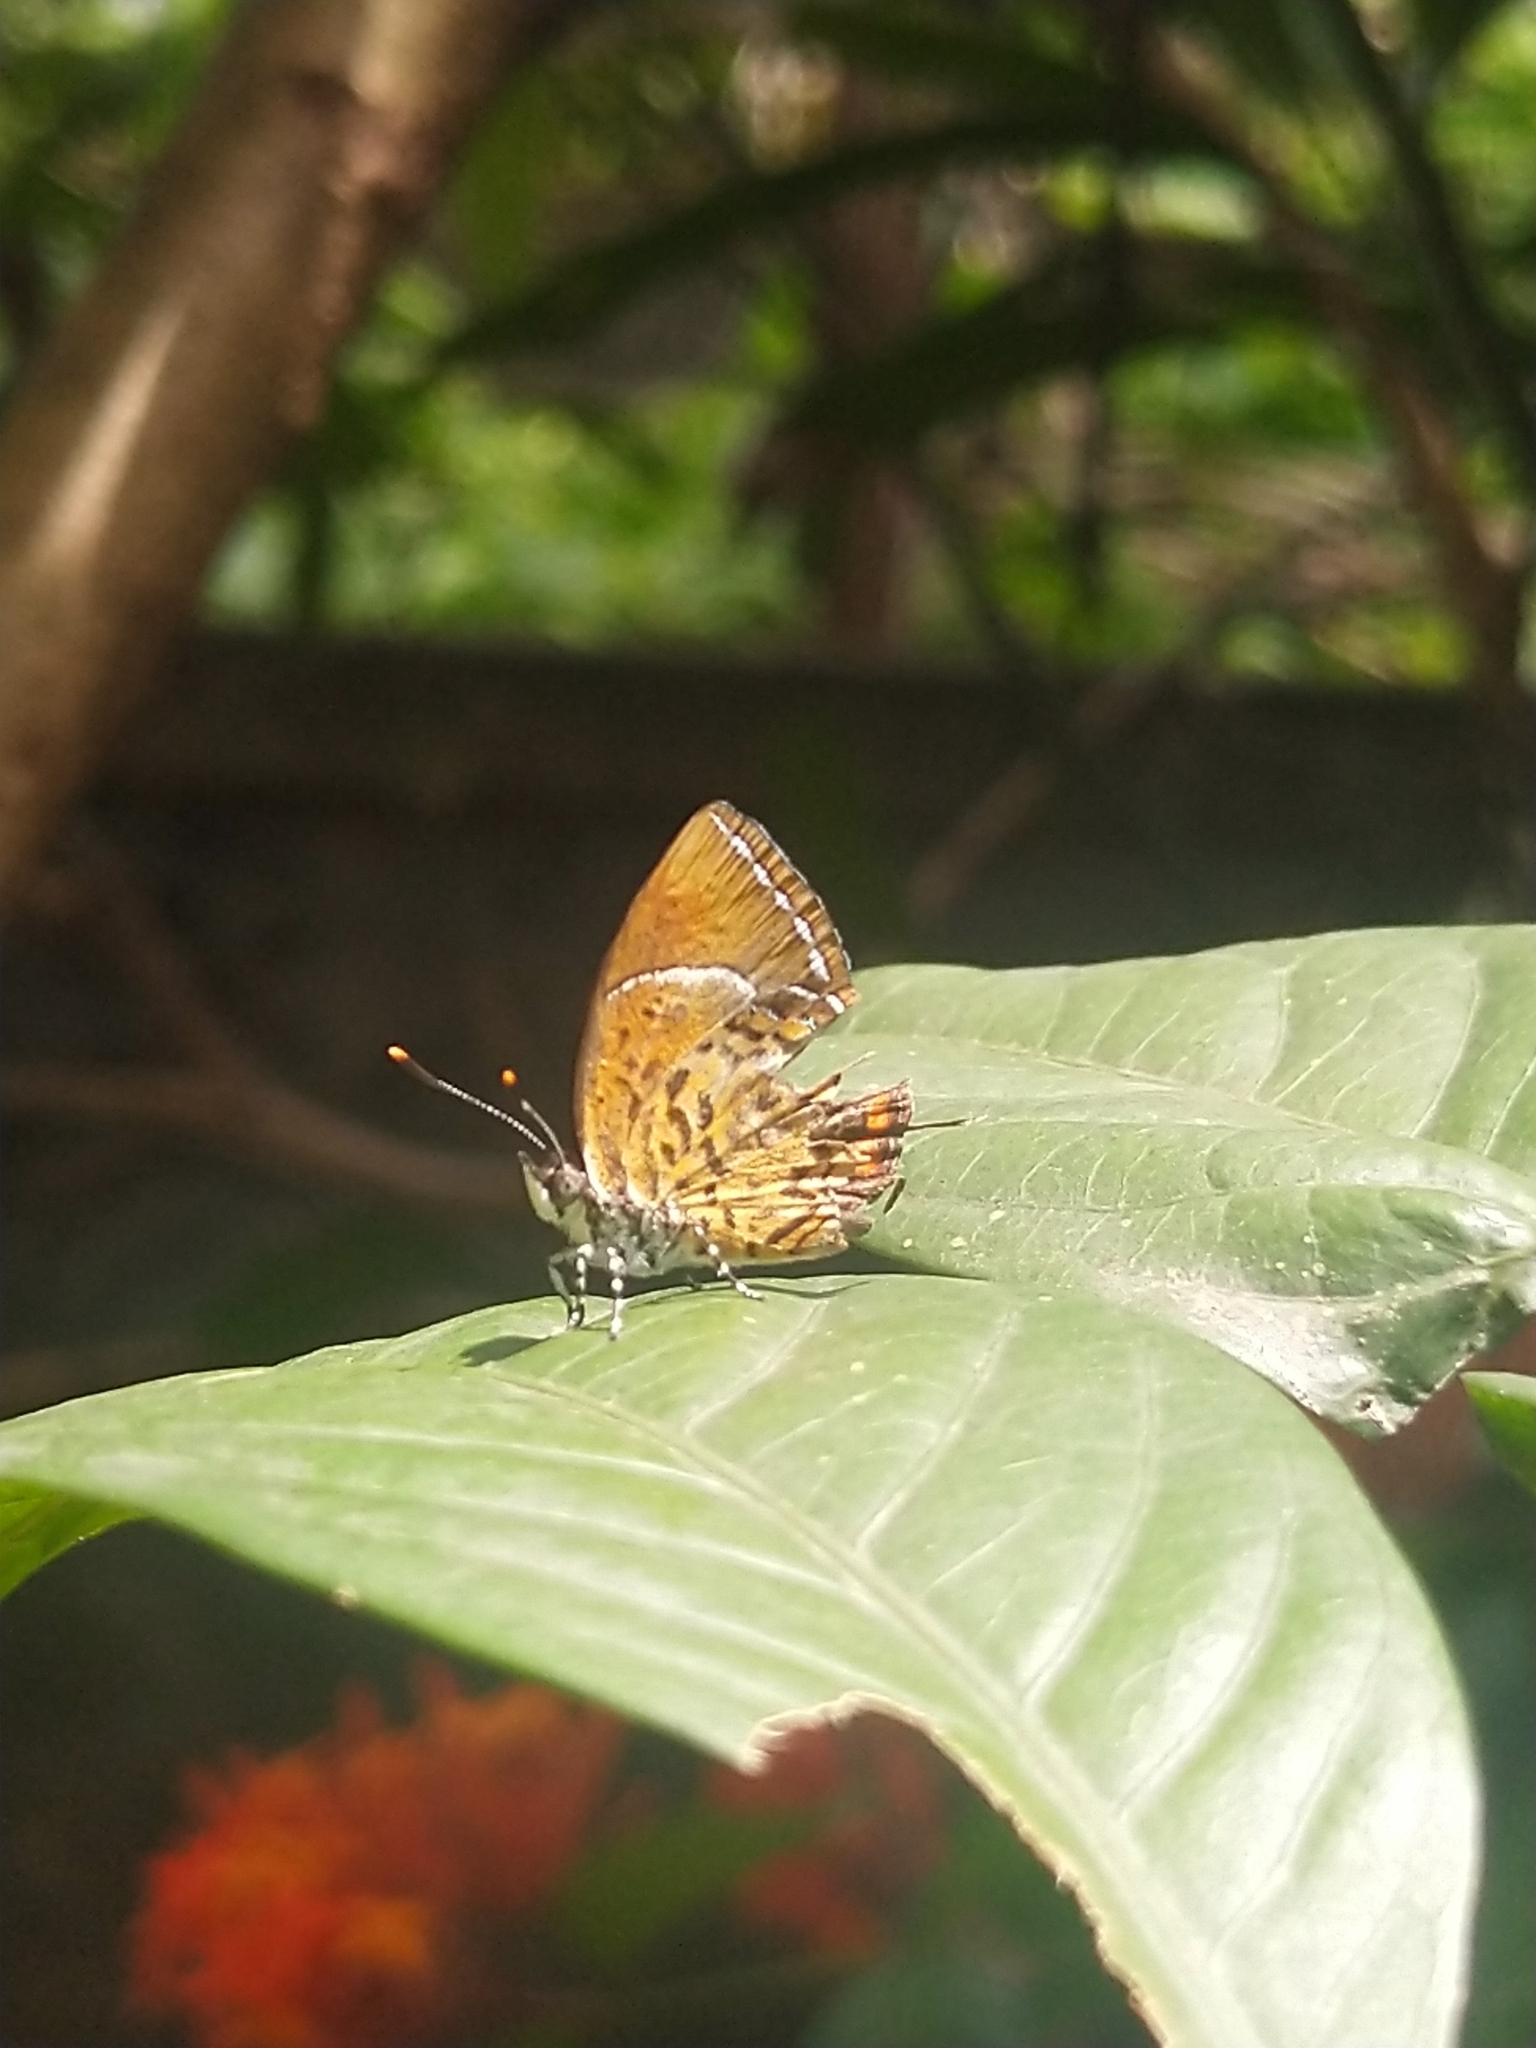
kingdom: Animalia
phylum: Arthropoda
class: Insecta
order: Lepidoptera
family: Lycaenidae
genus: Rathinda
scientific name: Rathinda amor
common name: Monkey puzzle
